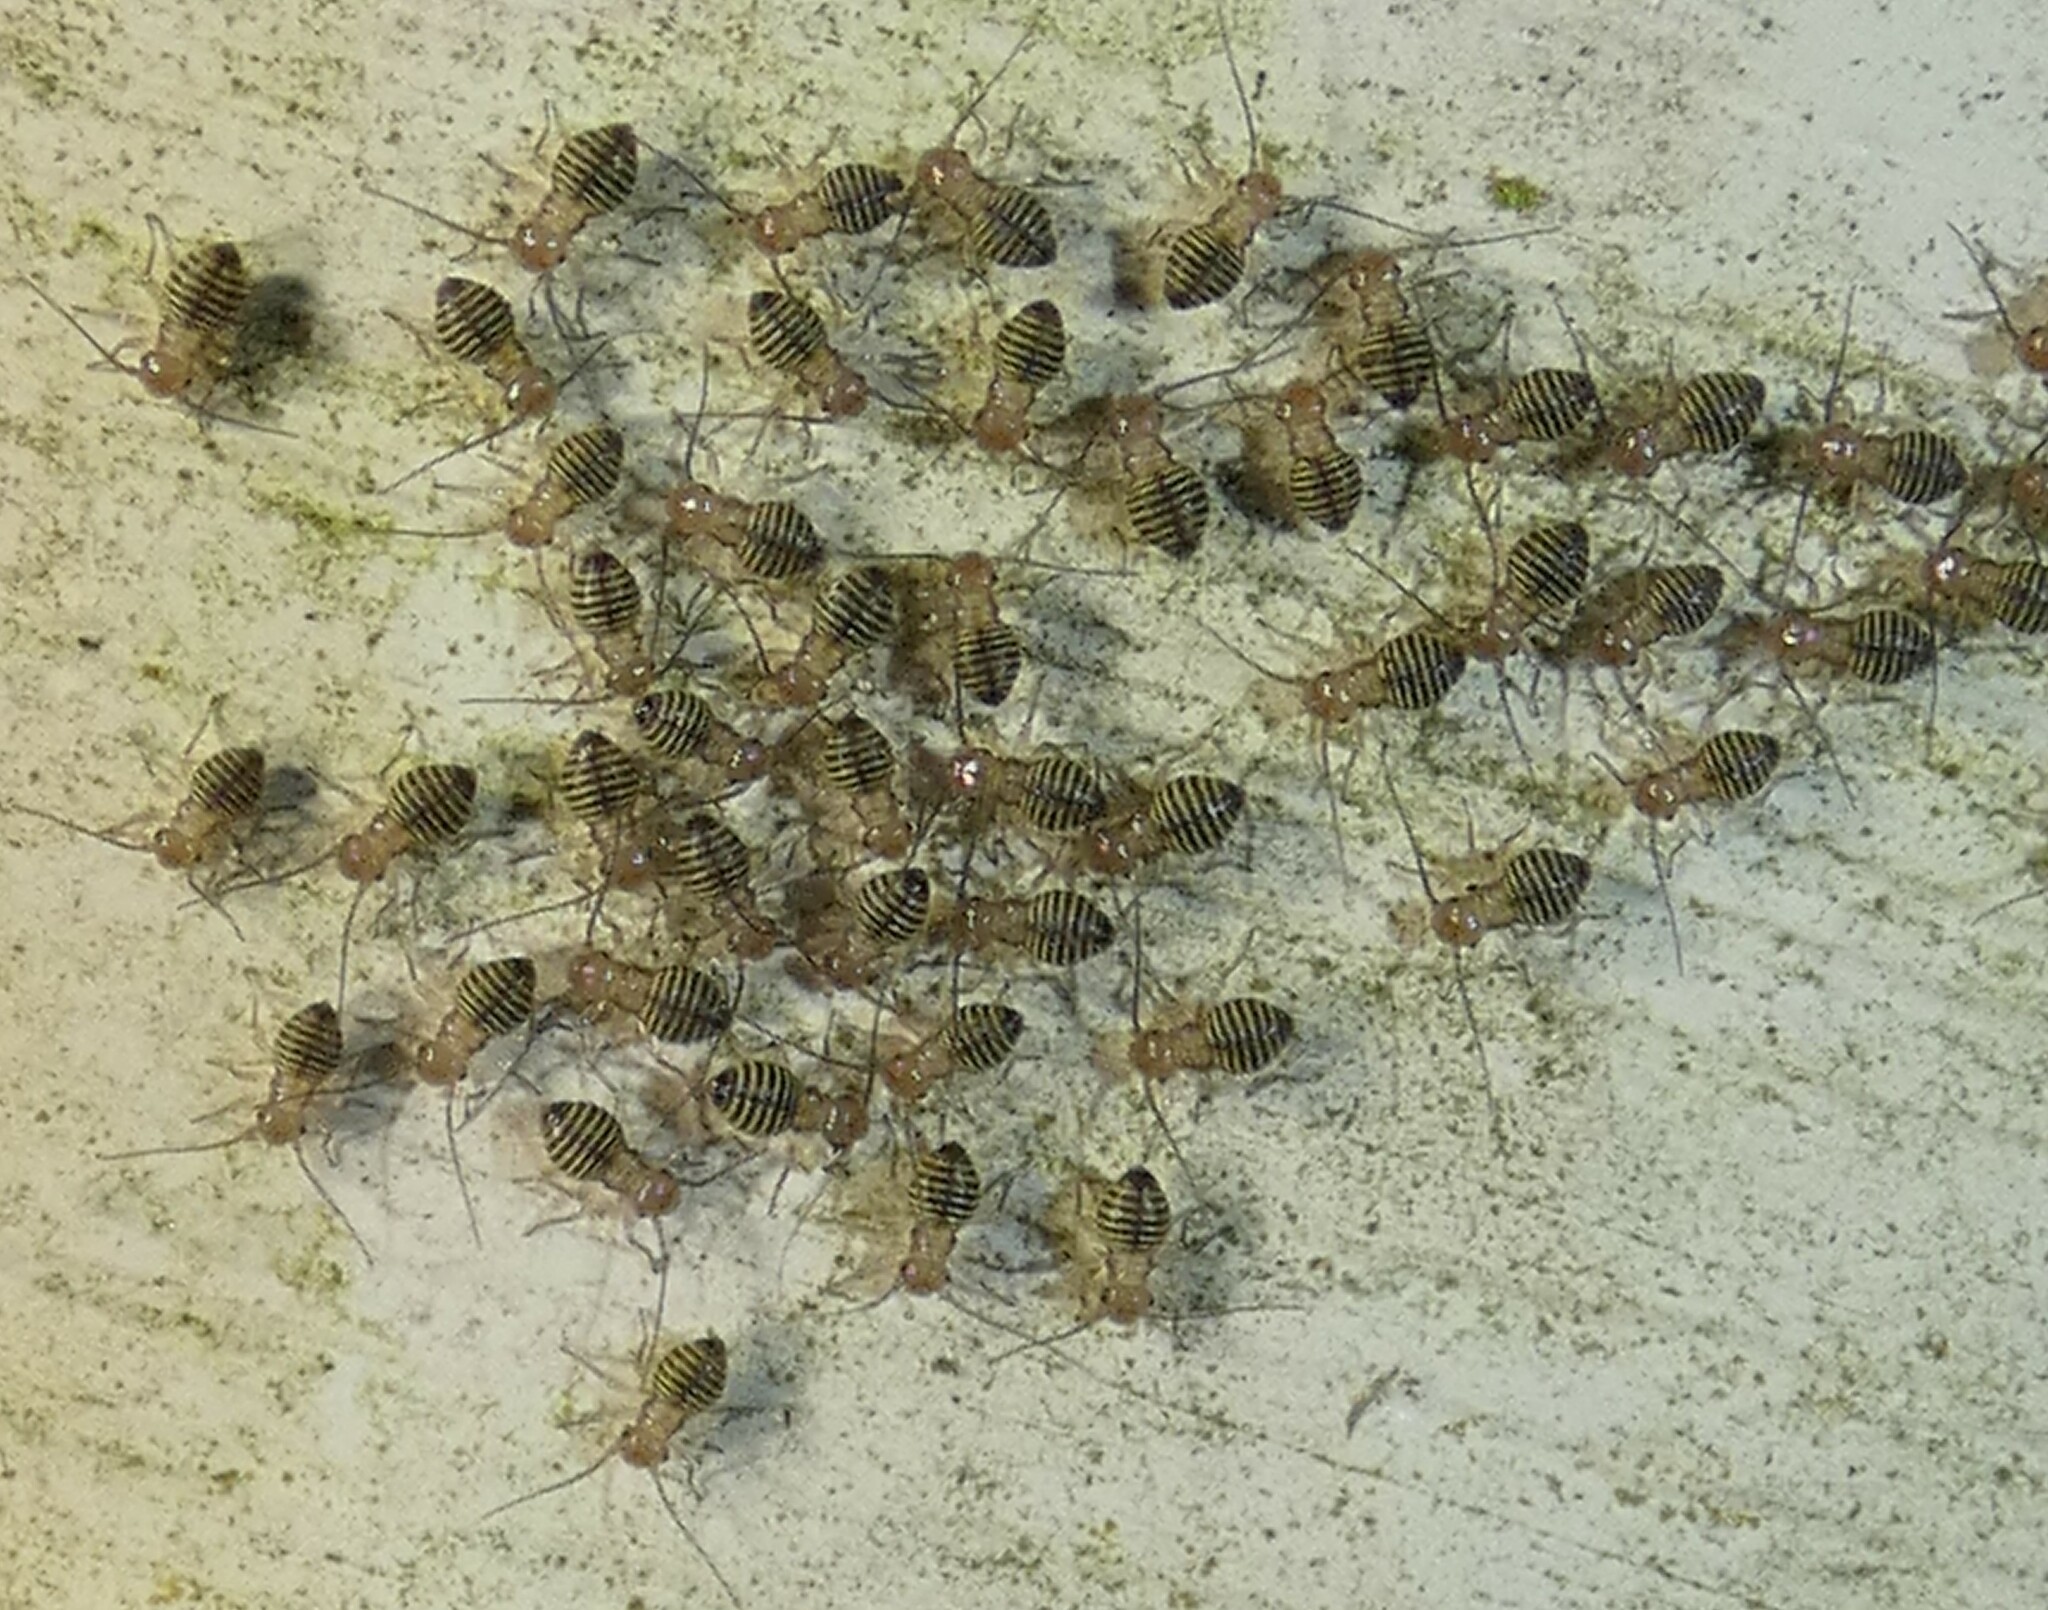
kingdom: Animalia
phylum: Arthropoda
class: Insecta
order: Psocodea
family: Psocidae
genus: Cerastipsocus
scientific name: Cerastipsocus venosus
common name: Tree cattle
